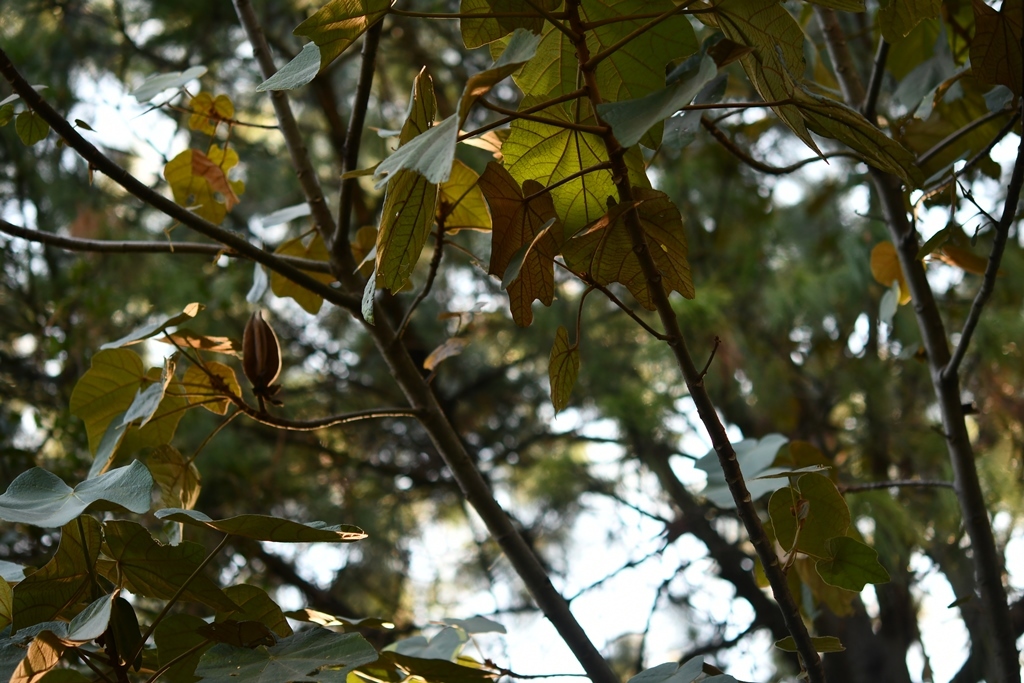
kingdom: Plantae
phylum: Tracheophyta
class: Magnoliopsida
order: Malvales
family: Malvaceae
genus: Chiranthodendron
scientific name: Chiranthodendron pentadactylon
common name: Mexican-hat-plant
